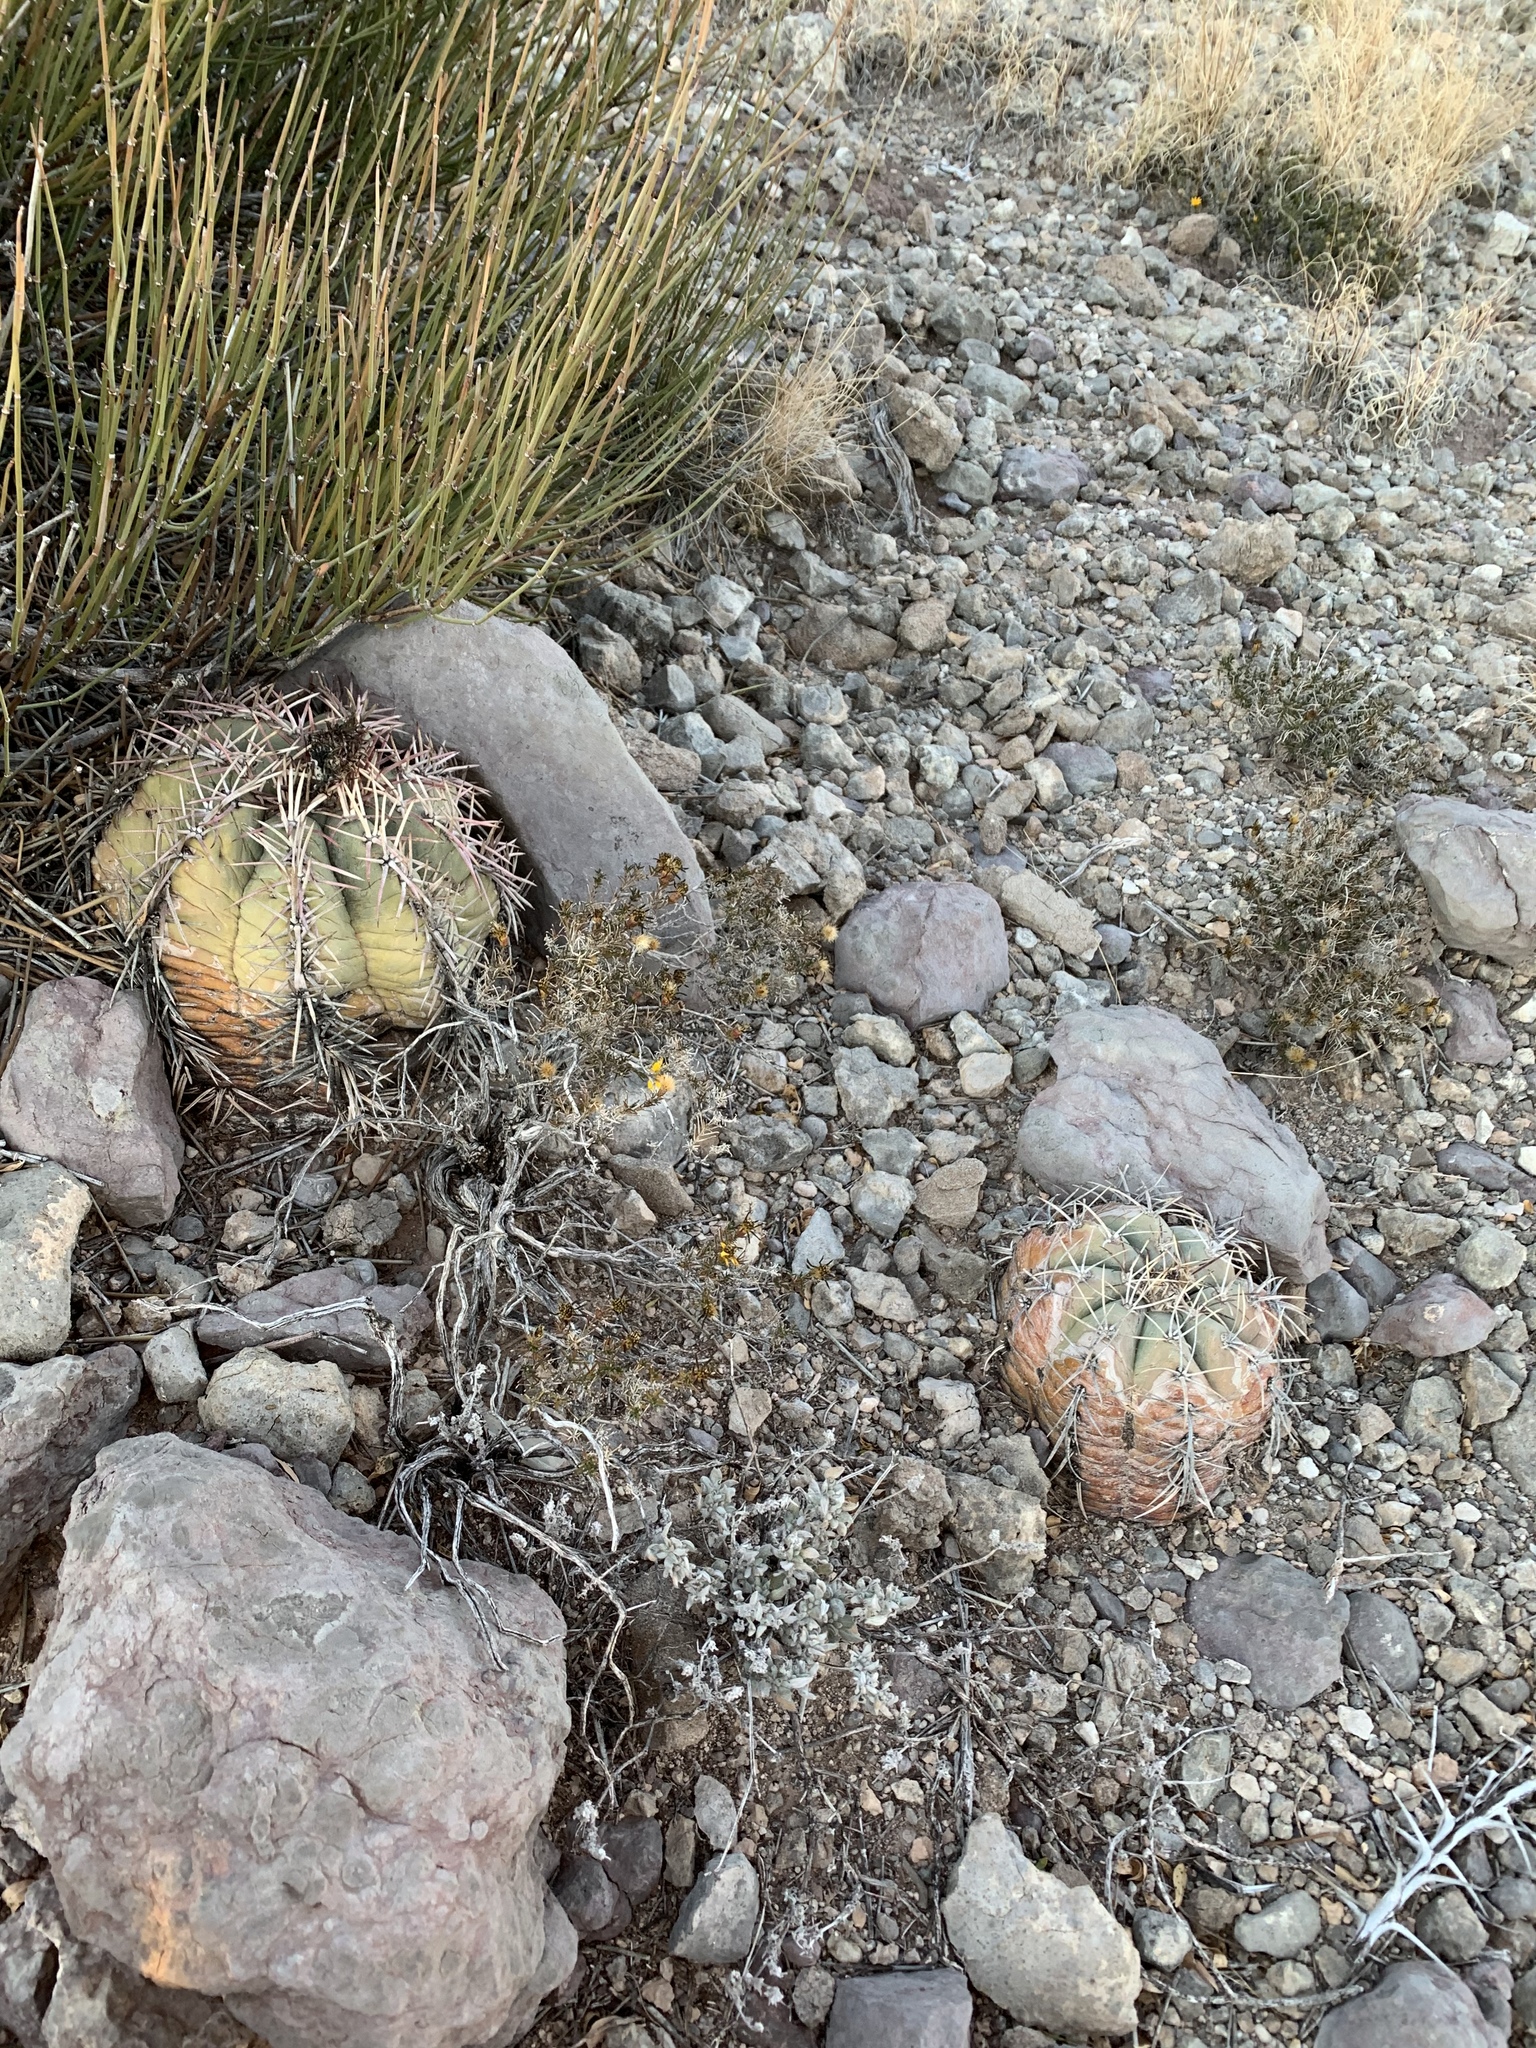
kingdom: Plantae
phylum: Tracheophyta
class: Magnoliopsida
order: Caryophyllales
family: Cactaceae
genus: Echinocactus
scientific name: Echinocactus horizonthalonius
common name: Devilshead
